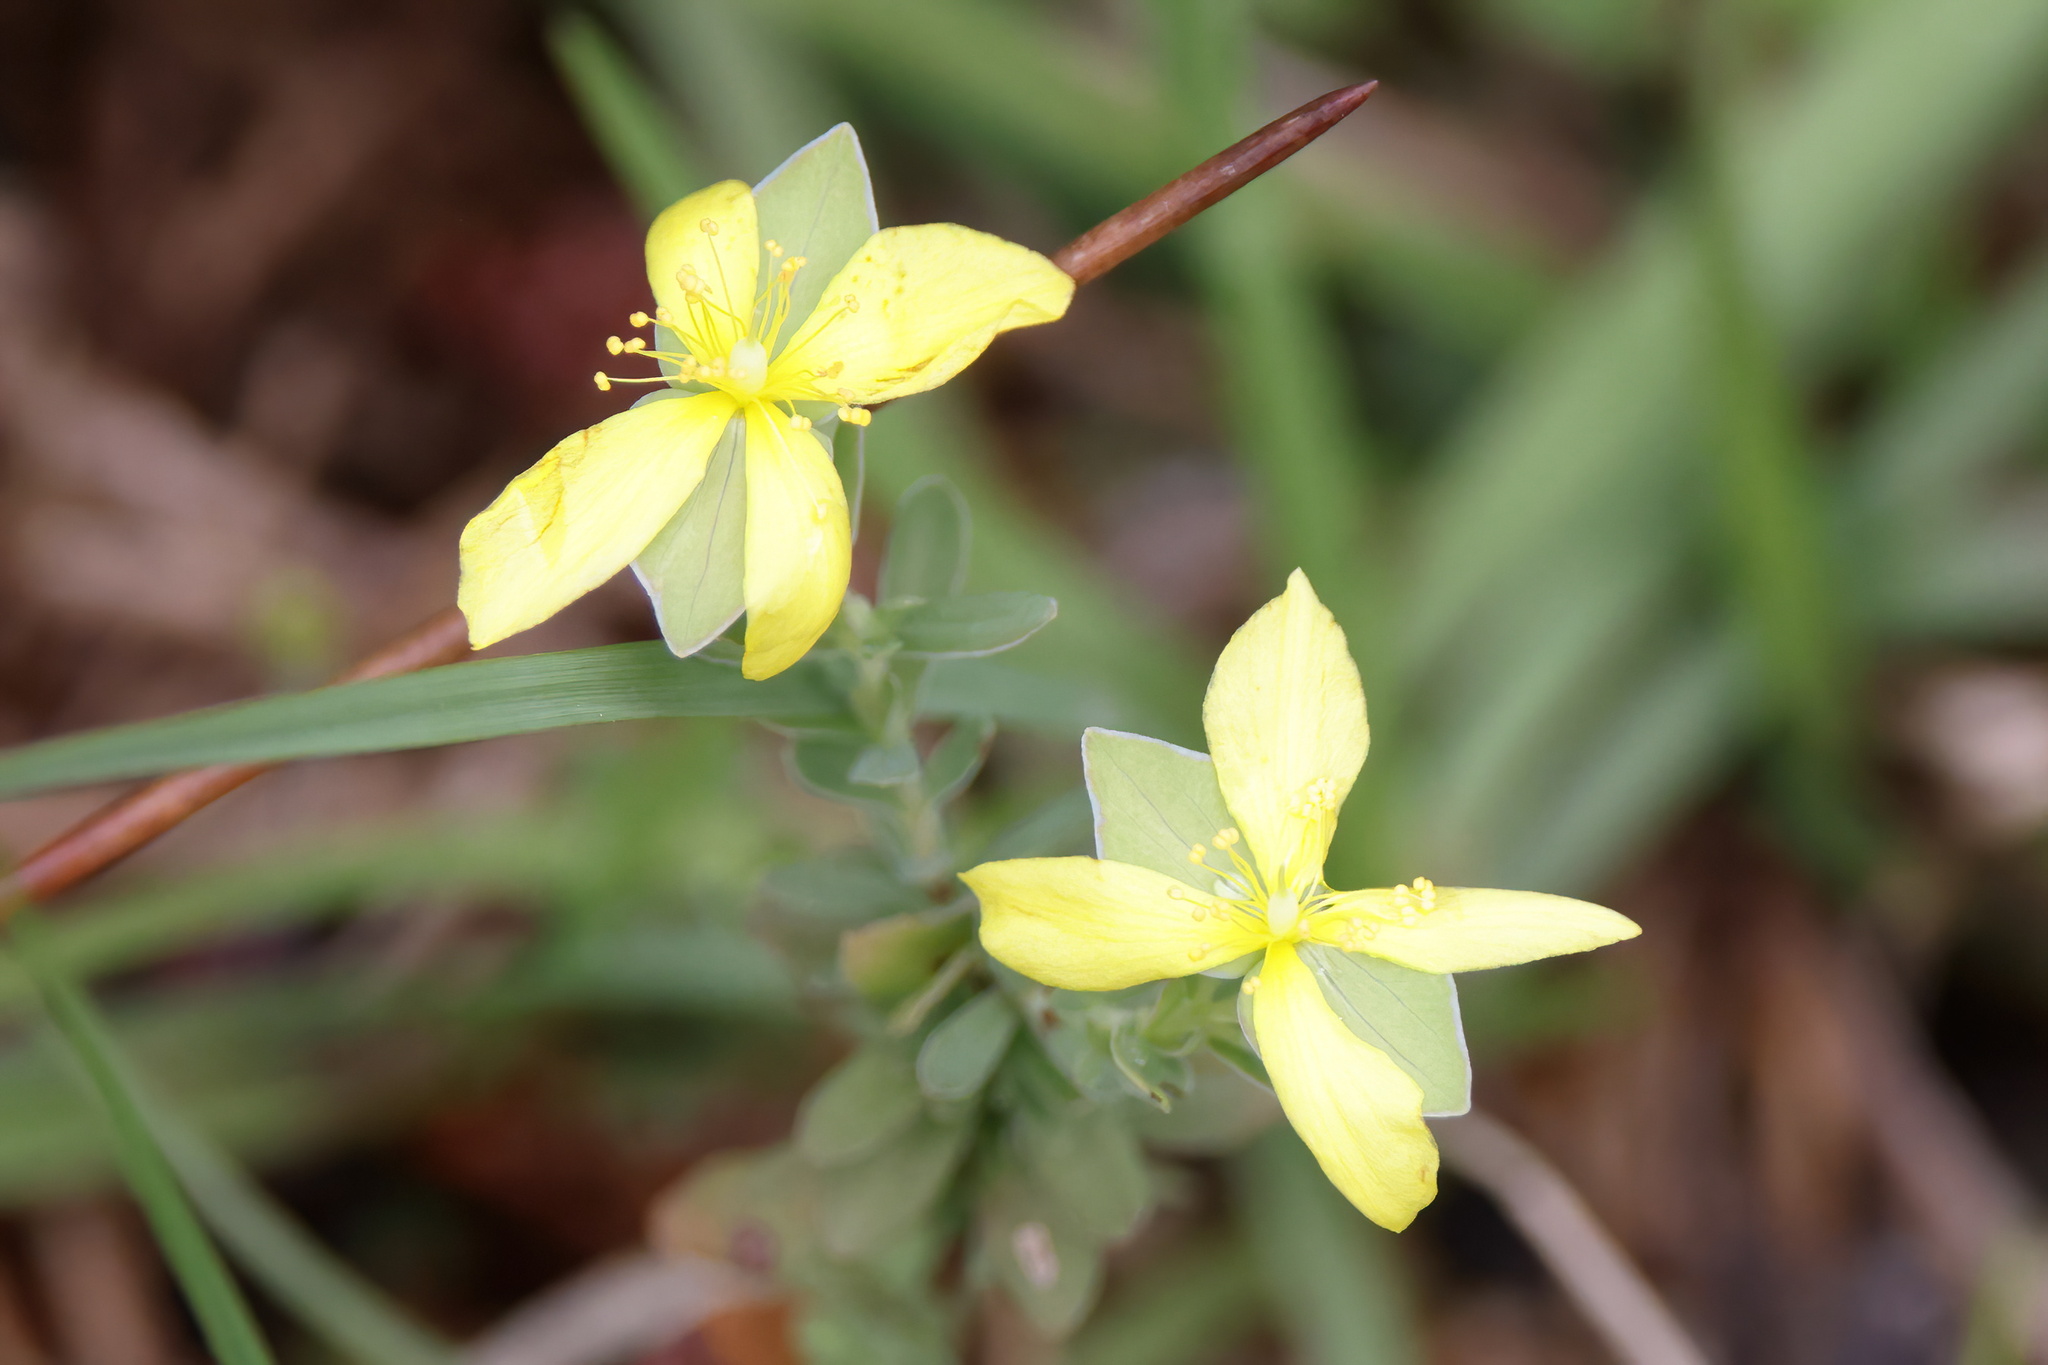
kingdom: Plantae
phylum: Tracheophyta
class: Magnoliopsida
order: Malpighiales
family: Hypericaceae
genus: Hypericum
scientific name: Hypericum hypericoides
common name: St. andrew's cross
